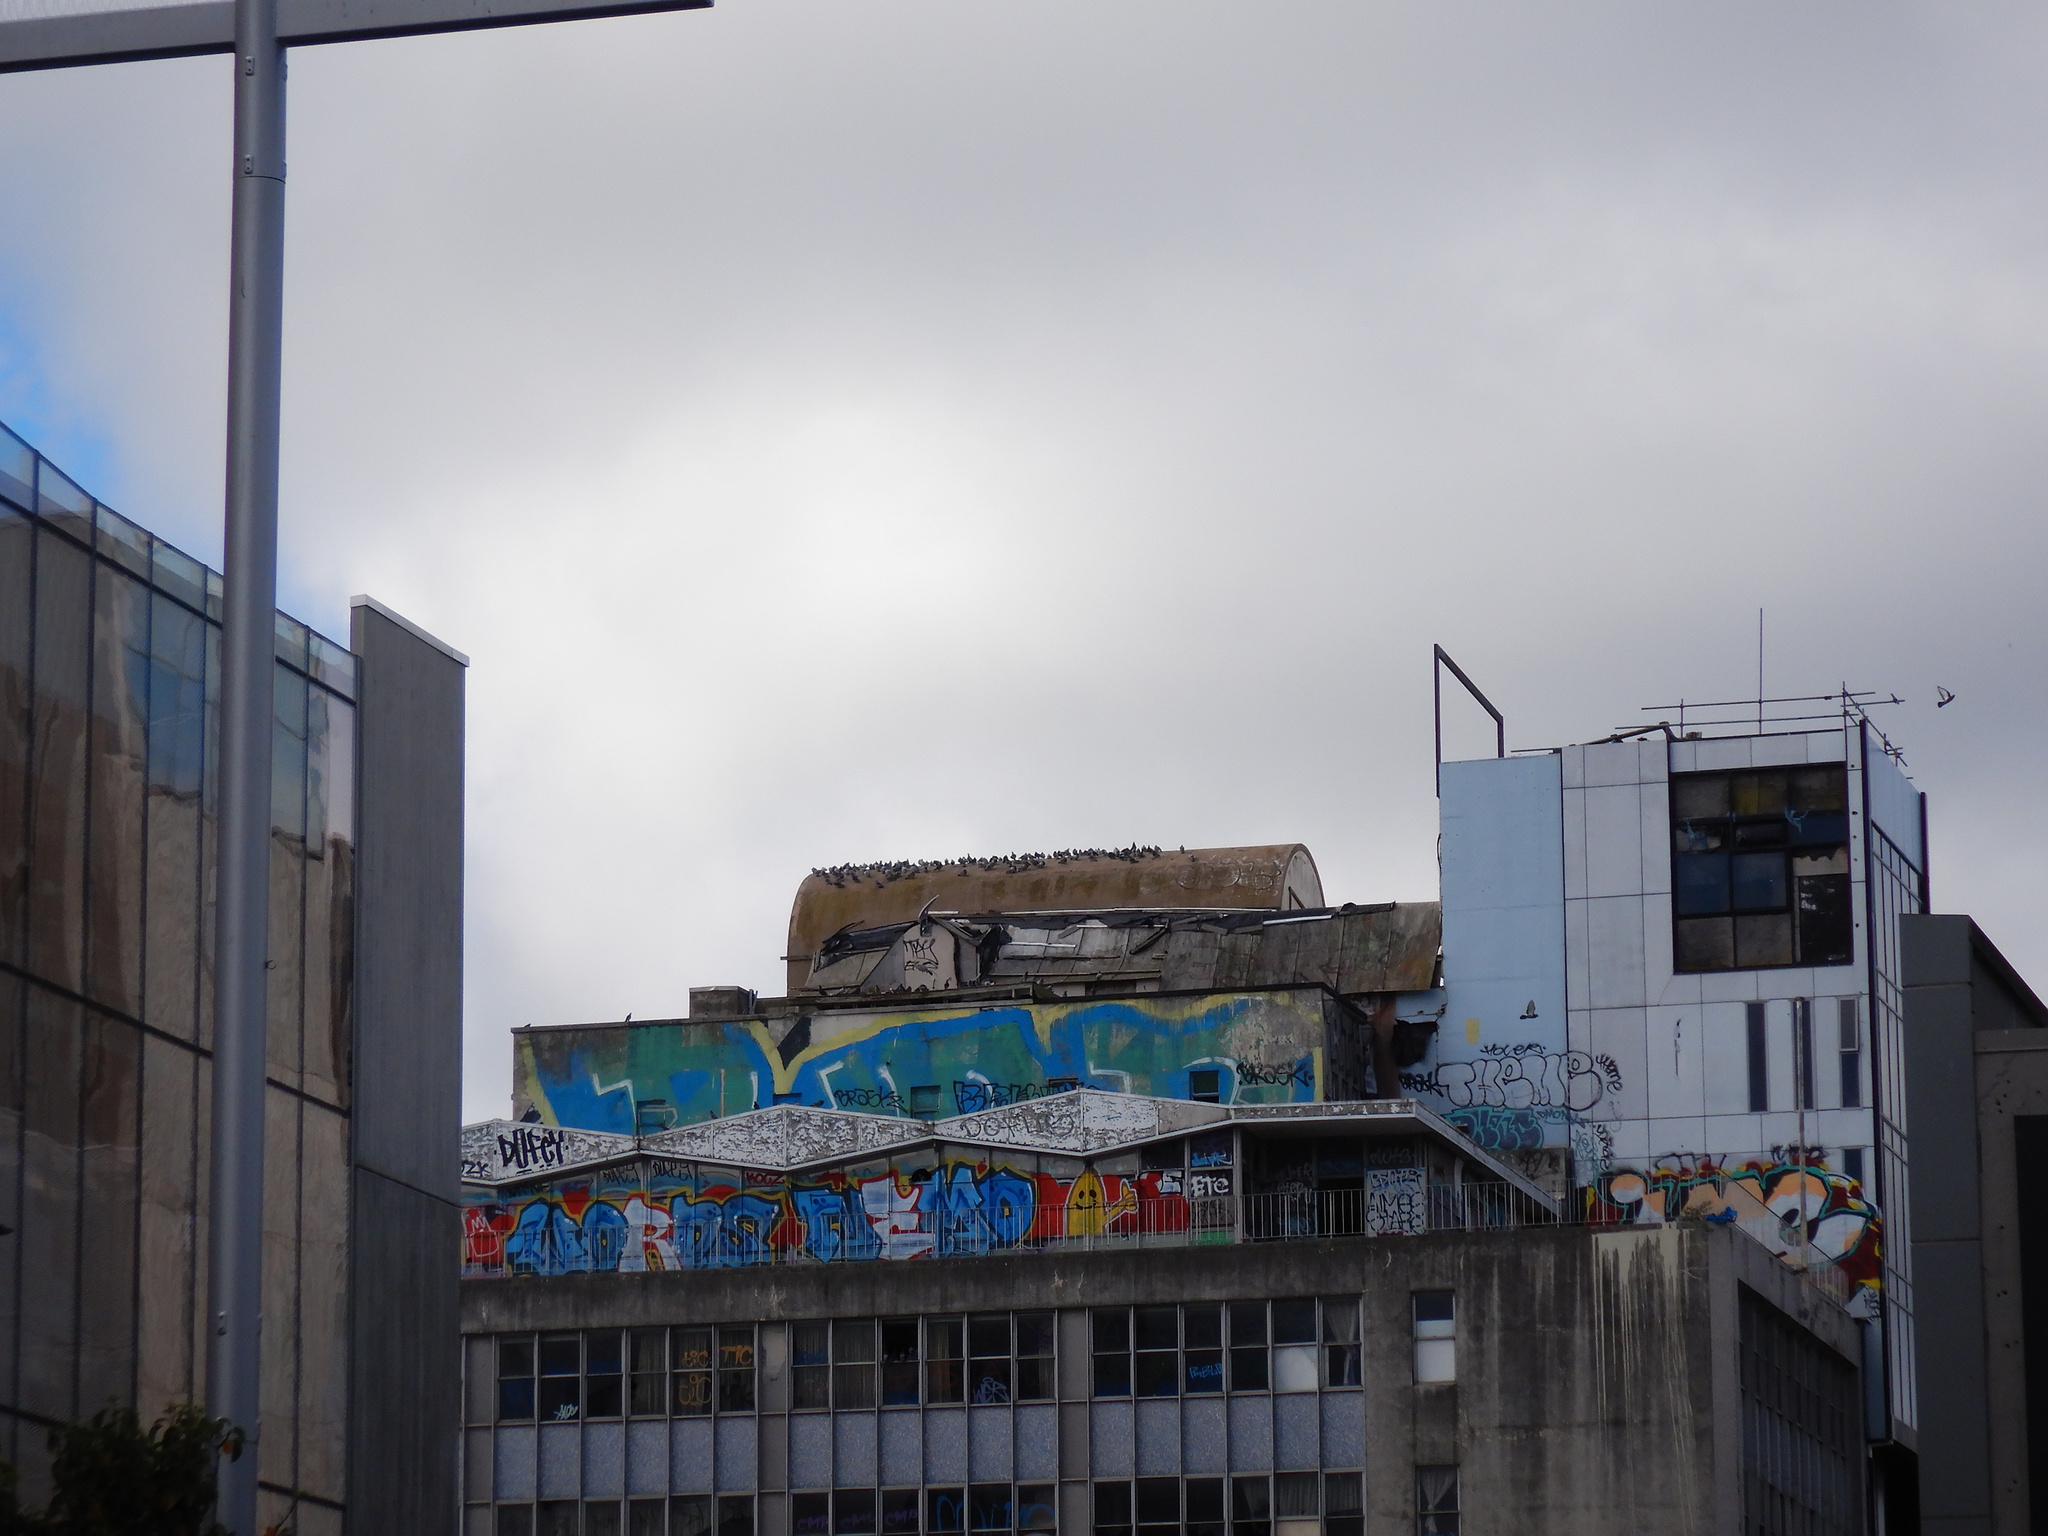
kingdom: Animalia
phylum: Chordata
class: Aves
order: Columbiformes
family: Columbidae
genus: Columba
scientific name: Columba livia
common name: Rock pigeon
